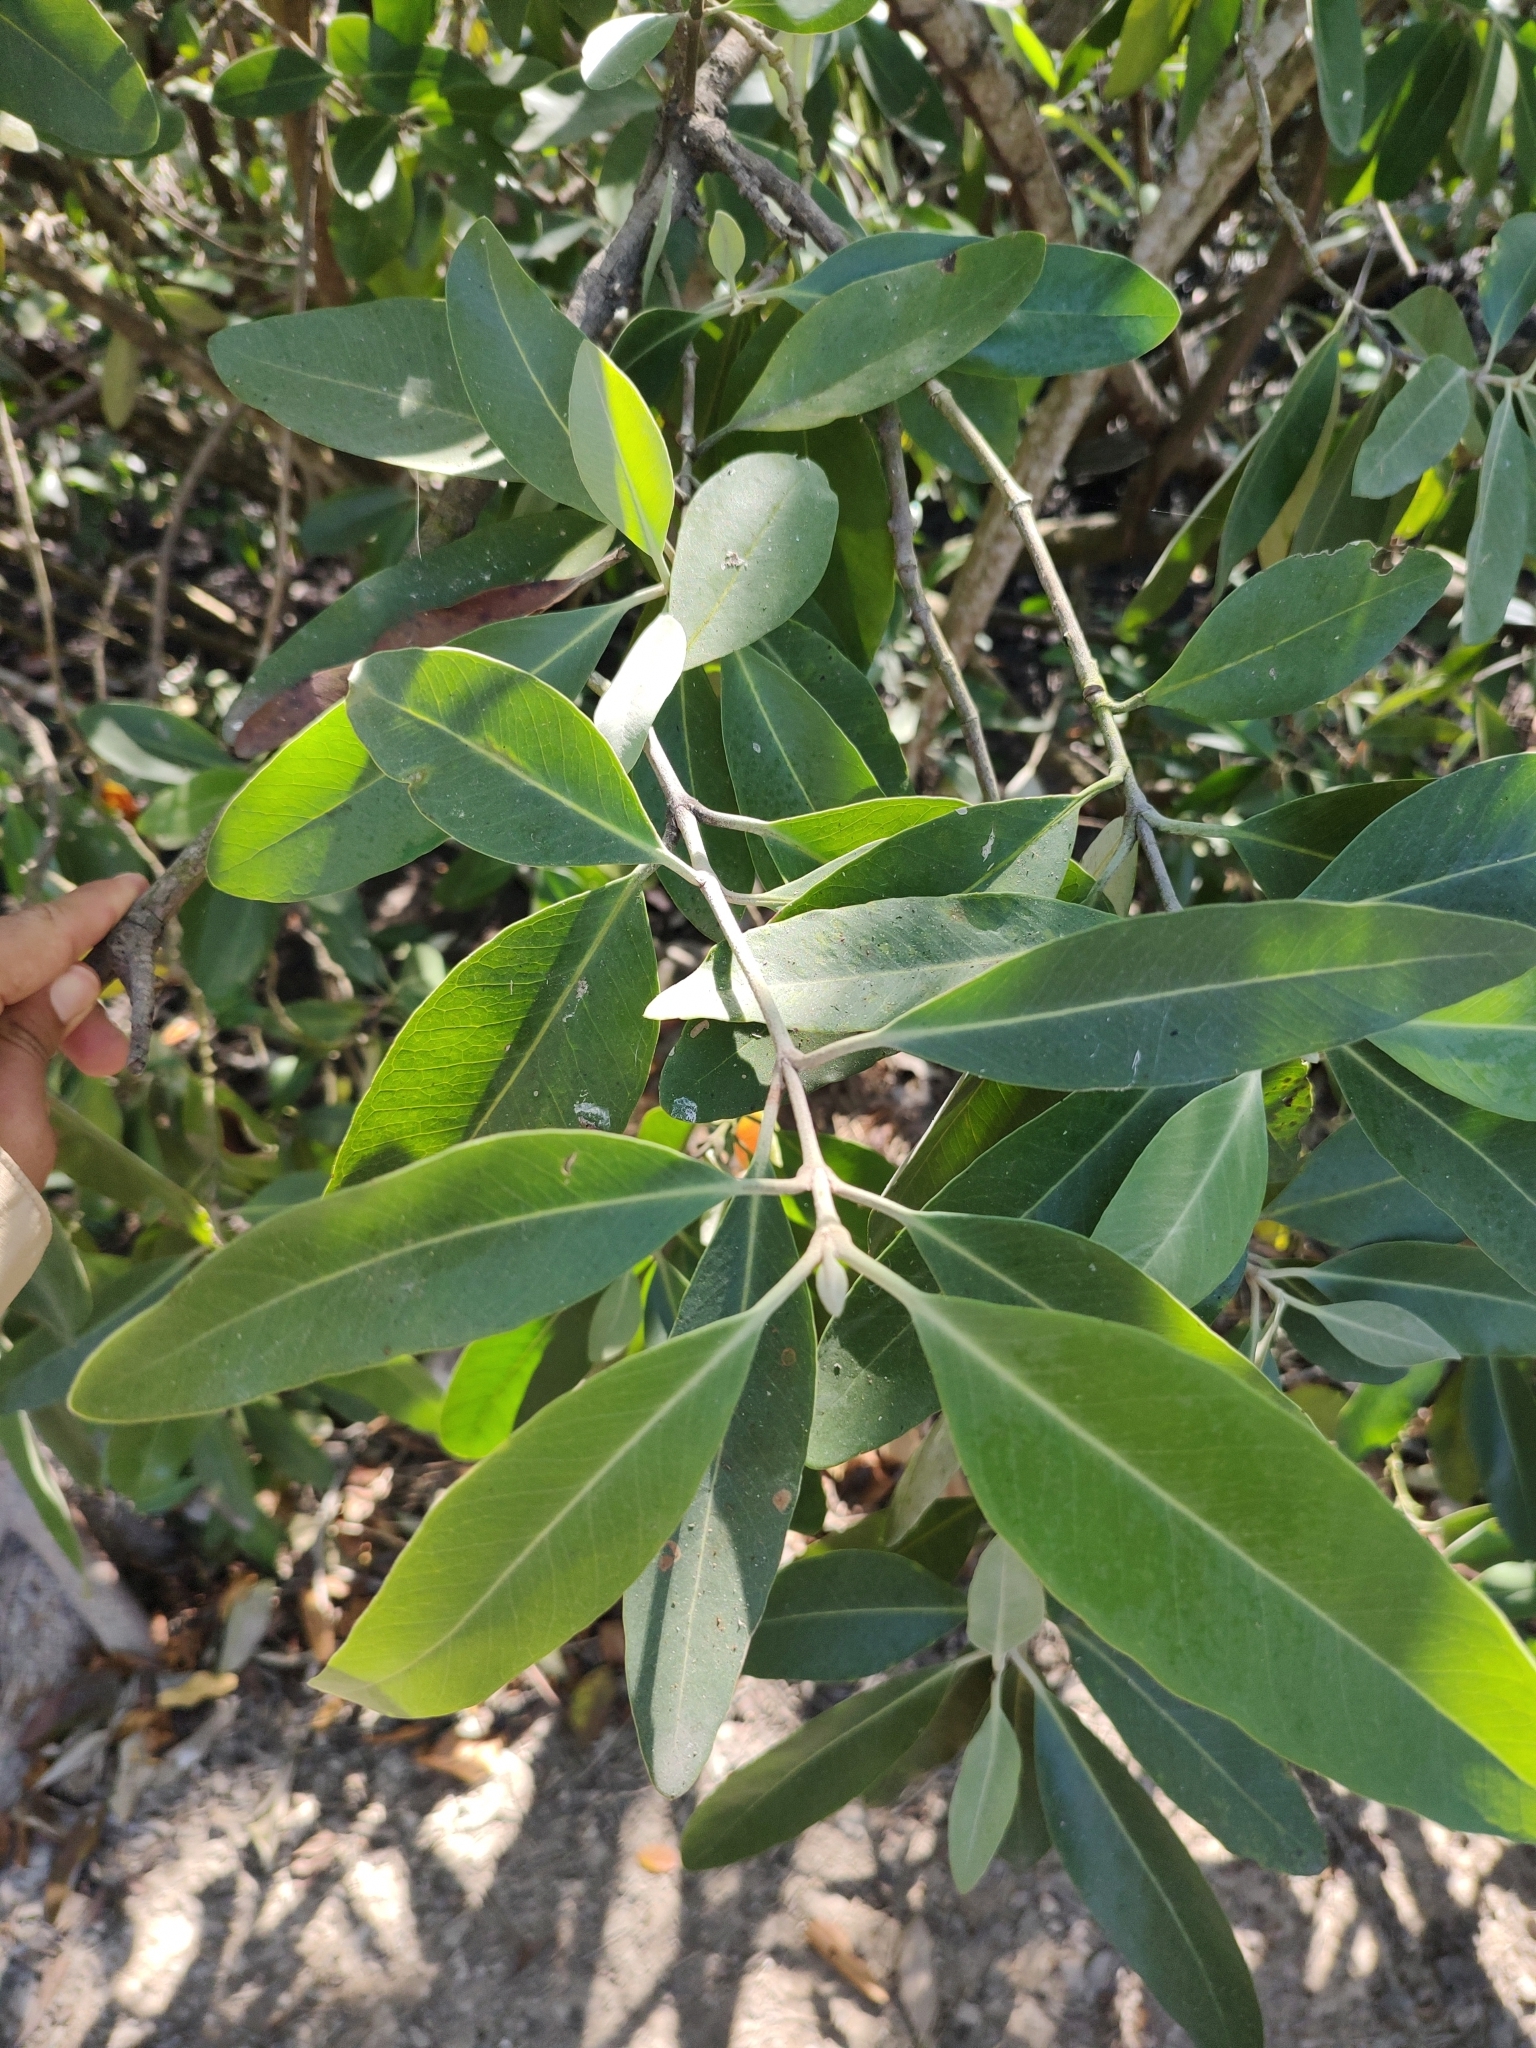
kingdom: Plantae
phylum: Tracheophyta
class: Magnoliopsida
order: Lamiales
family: Acanthaceae
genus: Avicennia
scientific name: Avicennia germinans
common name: Black mangrove
